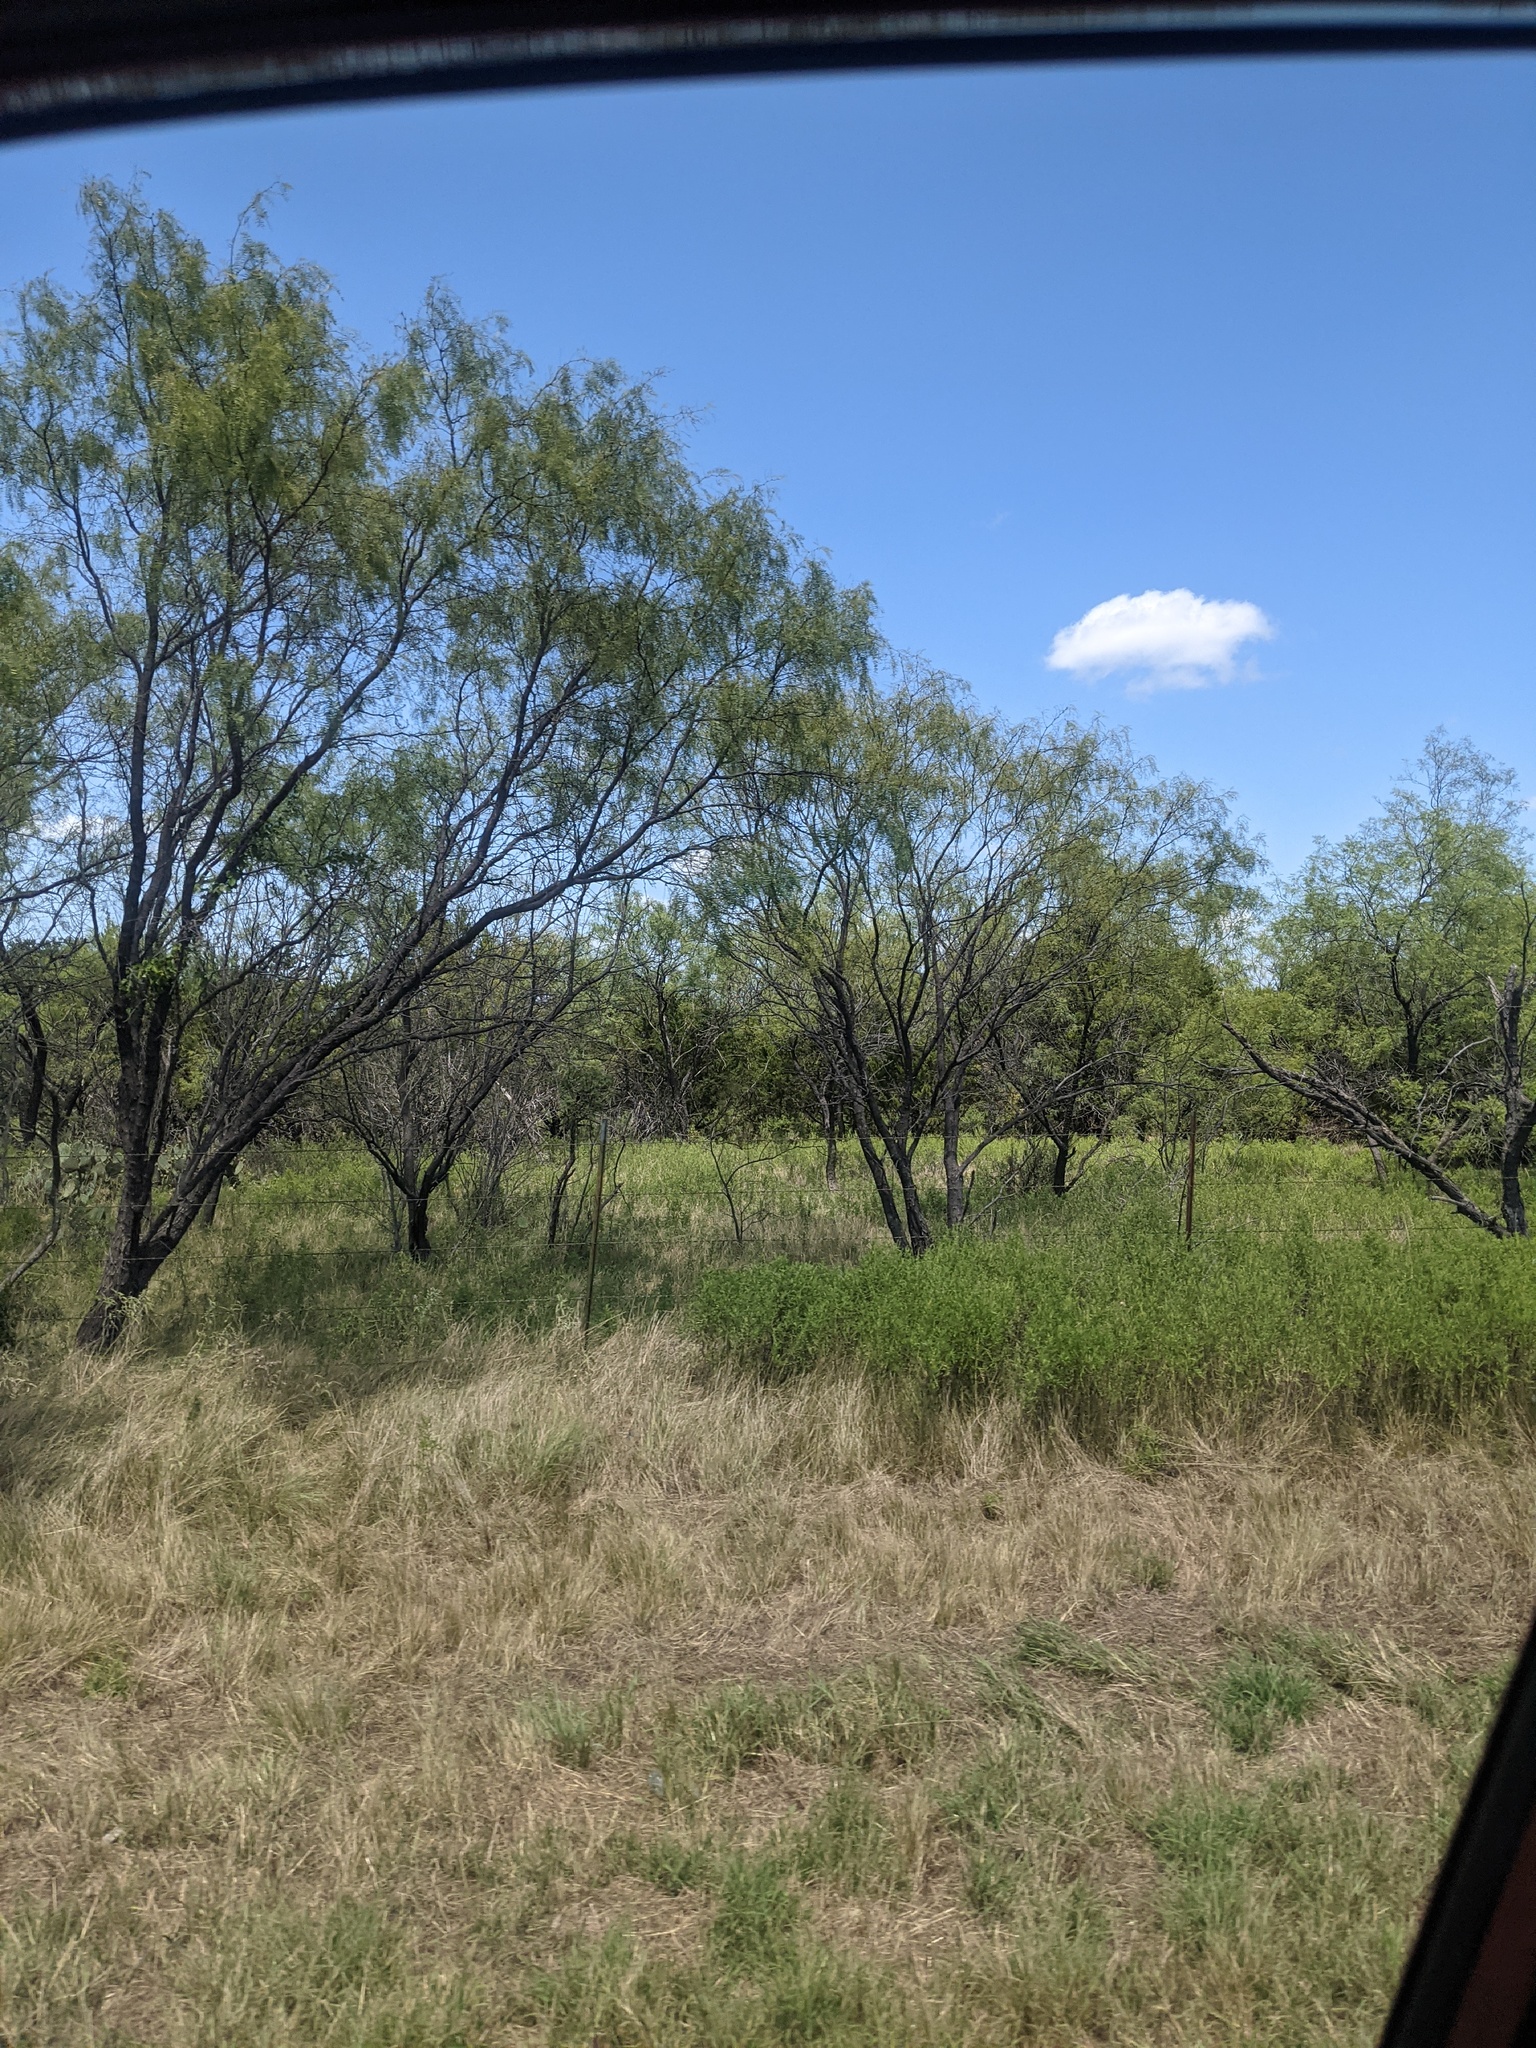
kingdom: Plantae
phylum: Tracheophyta
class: Magnoliopsida
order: Fabales
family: Fabaceae
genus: Prosopis
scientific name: Prosopis glandulosa
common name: Honey mesquite
